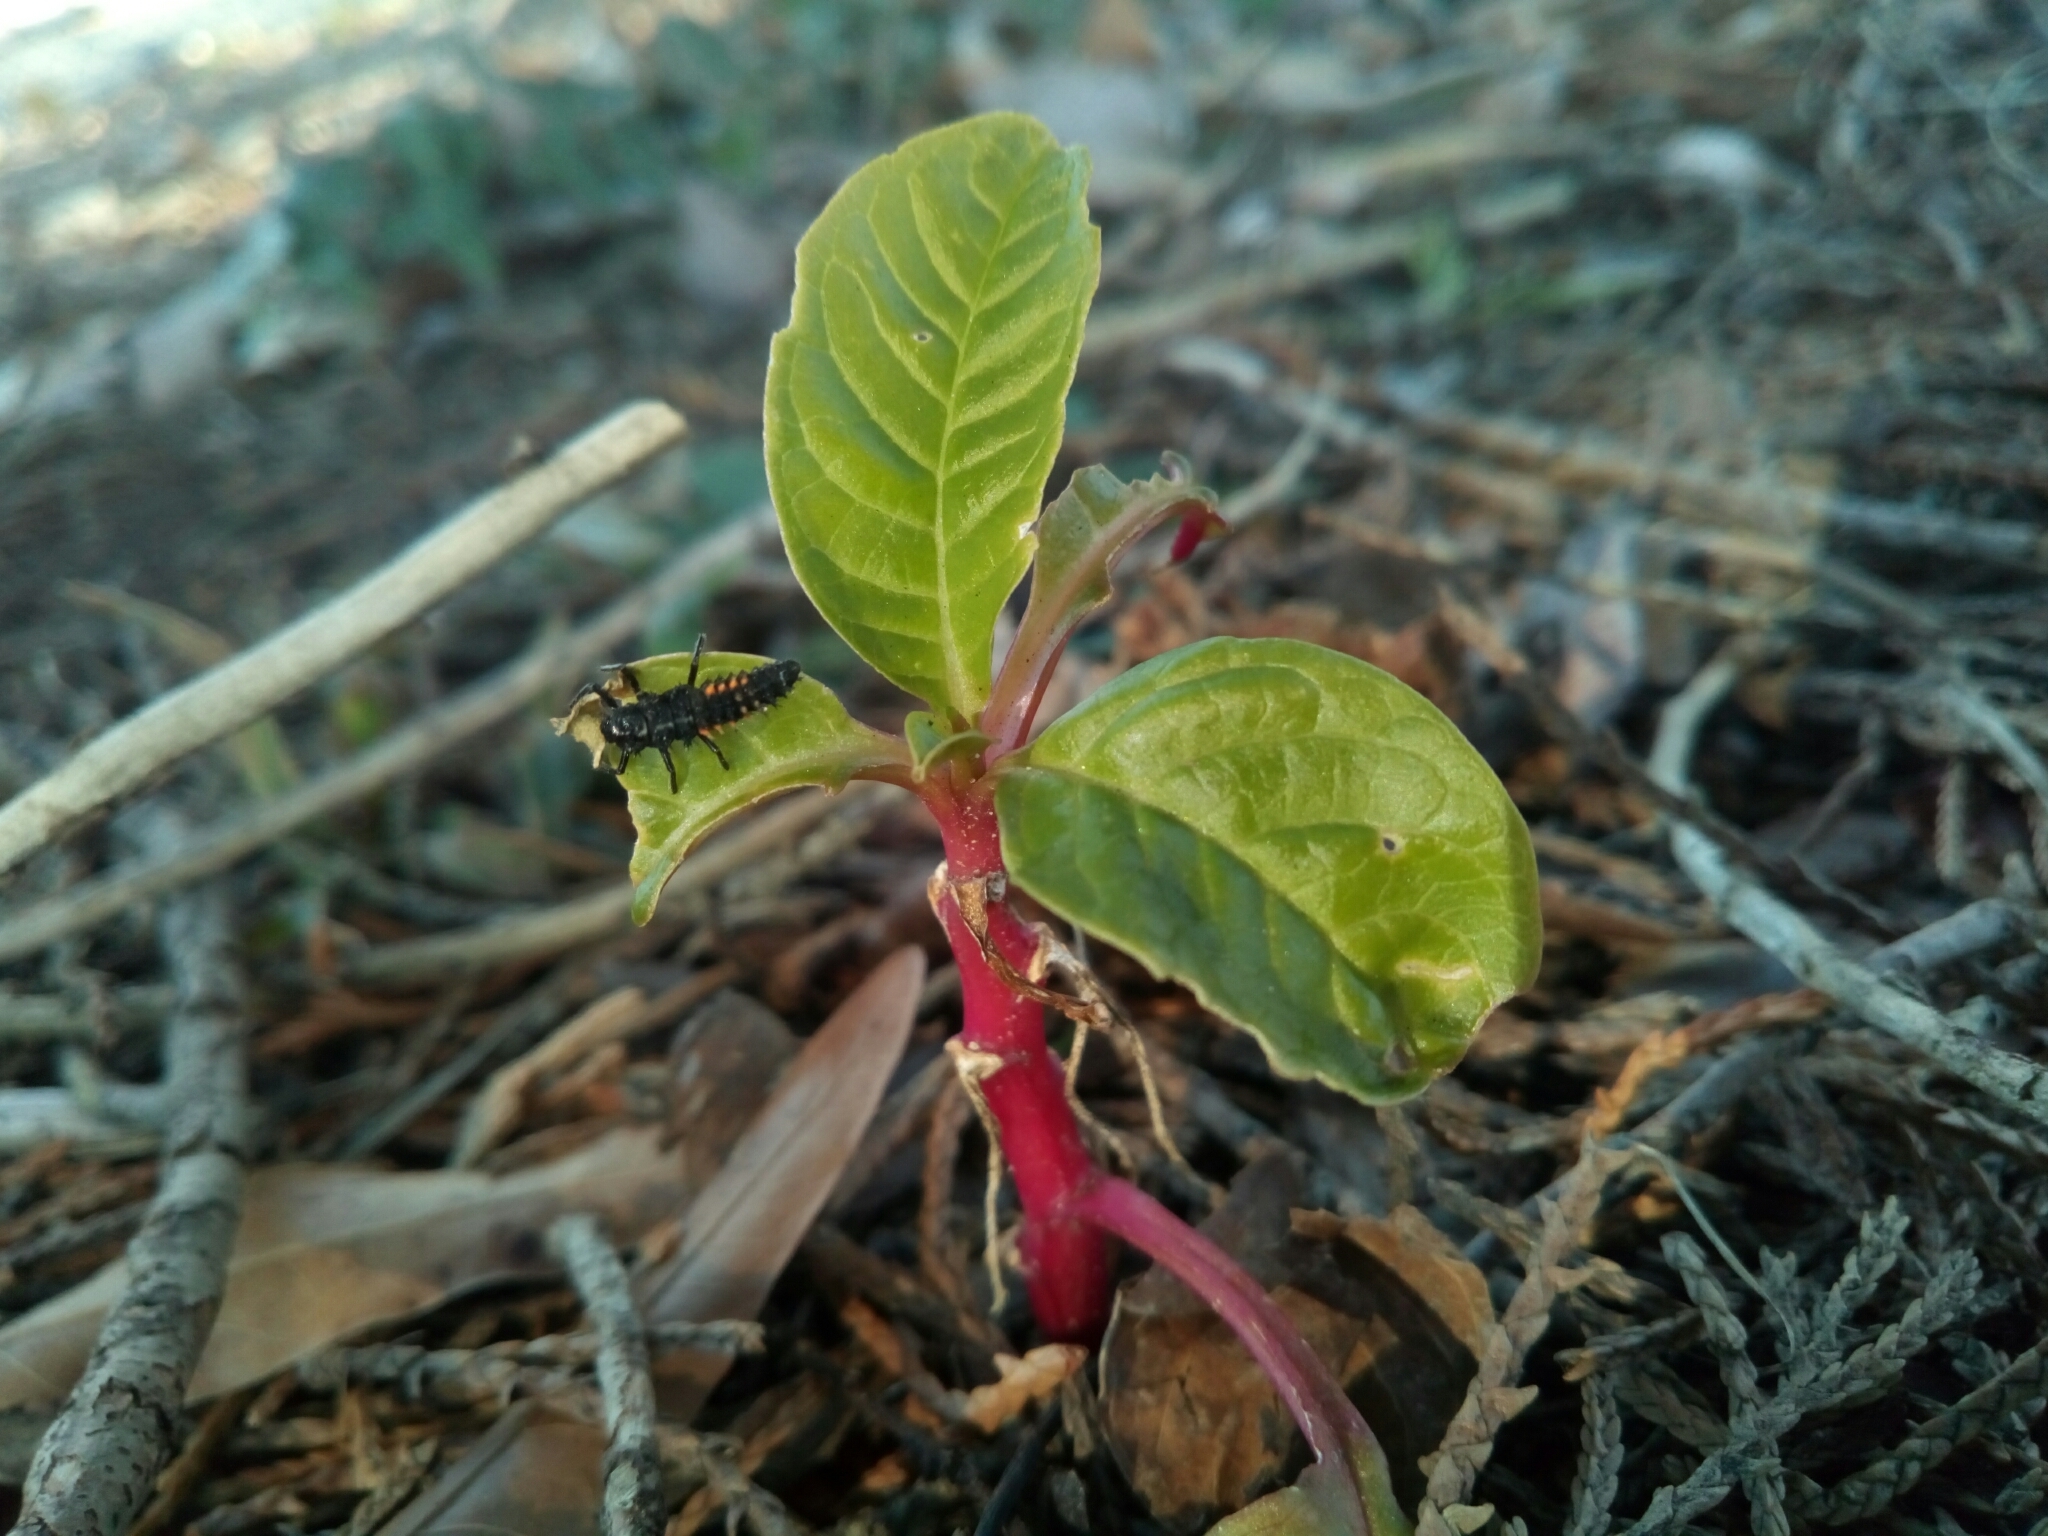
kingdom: Animalia
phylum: Arthropoda
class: Insecta
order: Coleoptera
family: Coccinellidae
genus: Harmonia
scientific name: Harmonia axyridis
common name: Harlequin ladybird
